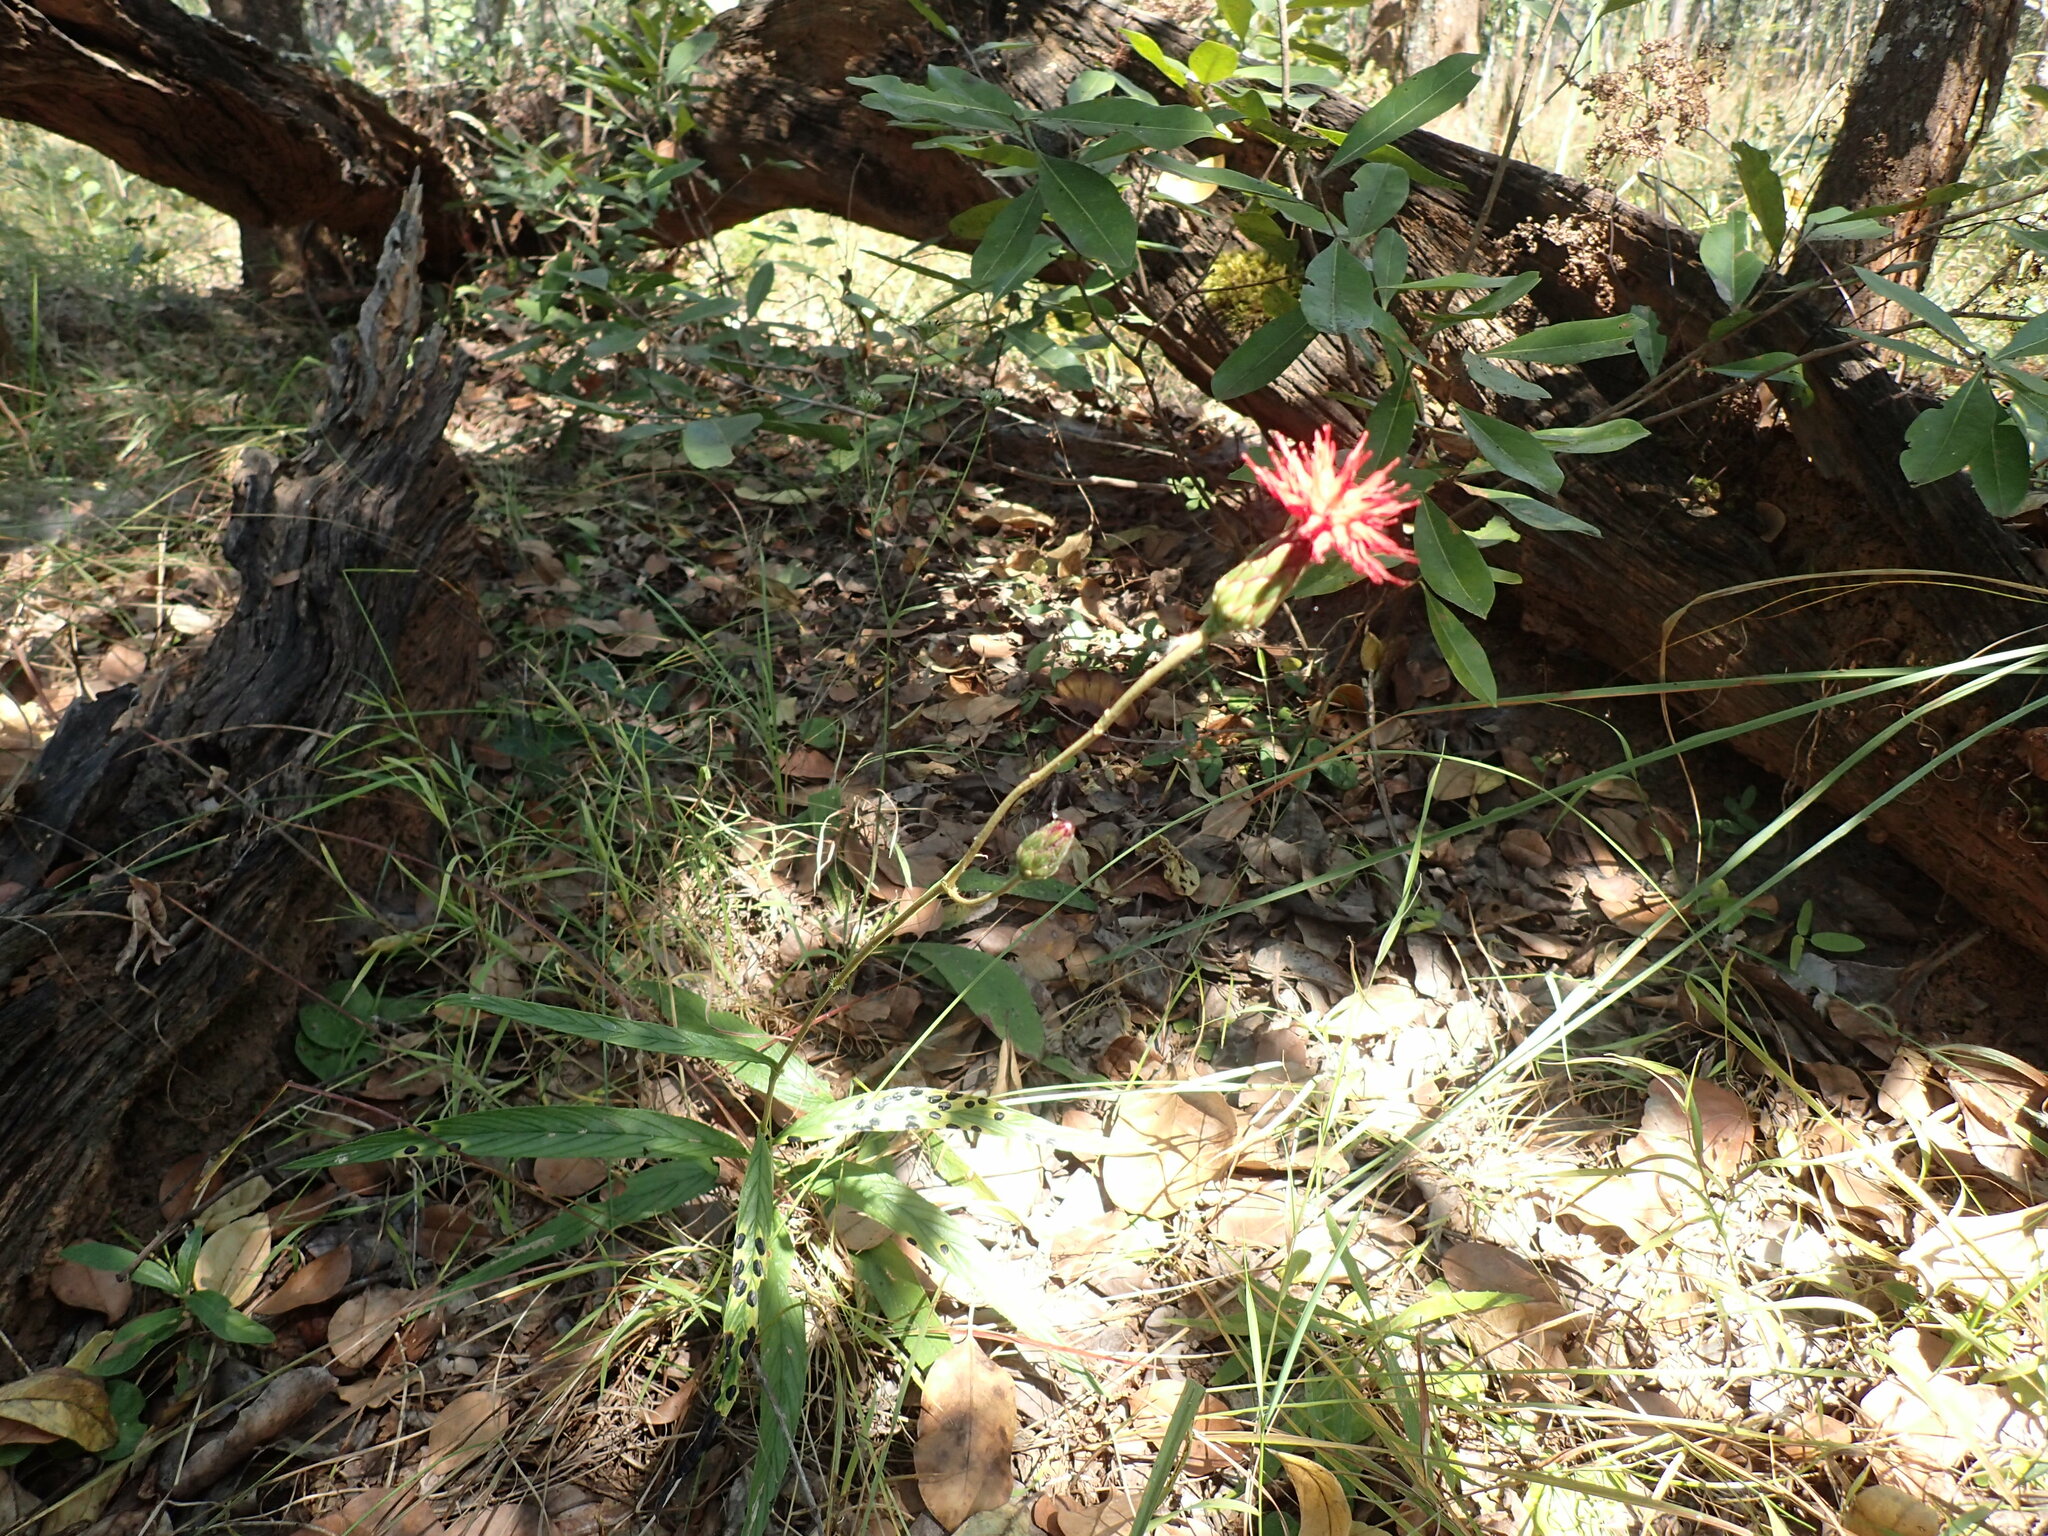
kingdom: Plantae
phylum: Tracheophyta
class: Magnoliopsida
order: Asterales
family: Asteraceae
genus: Pleiotaxis
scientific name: Pleiotaxis rogersii
